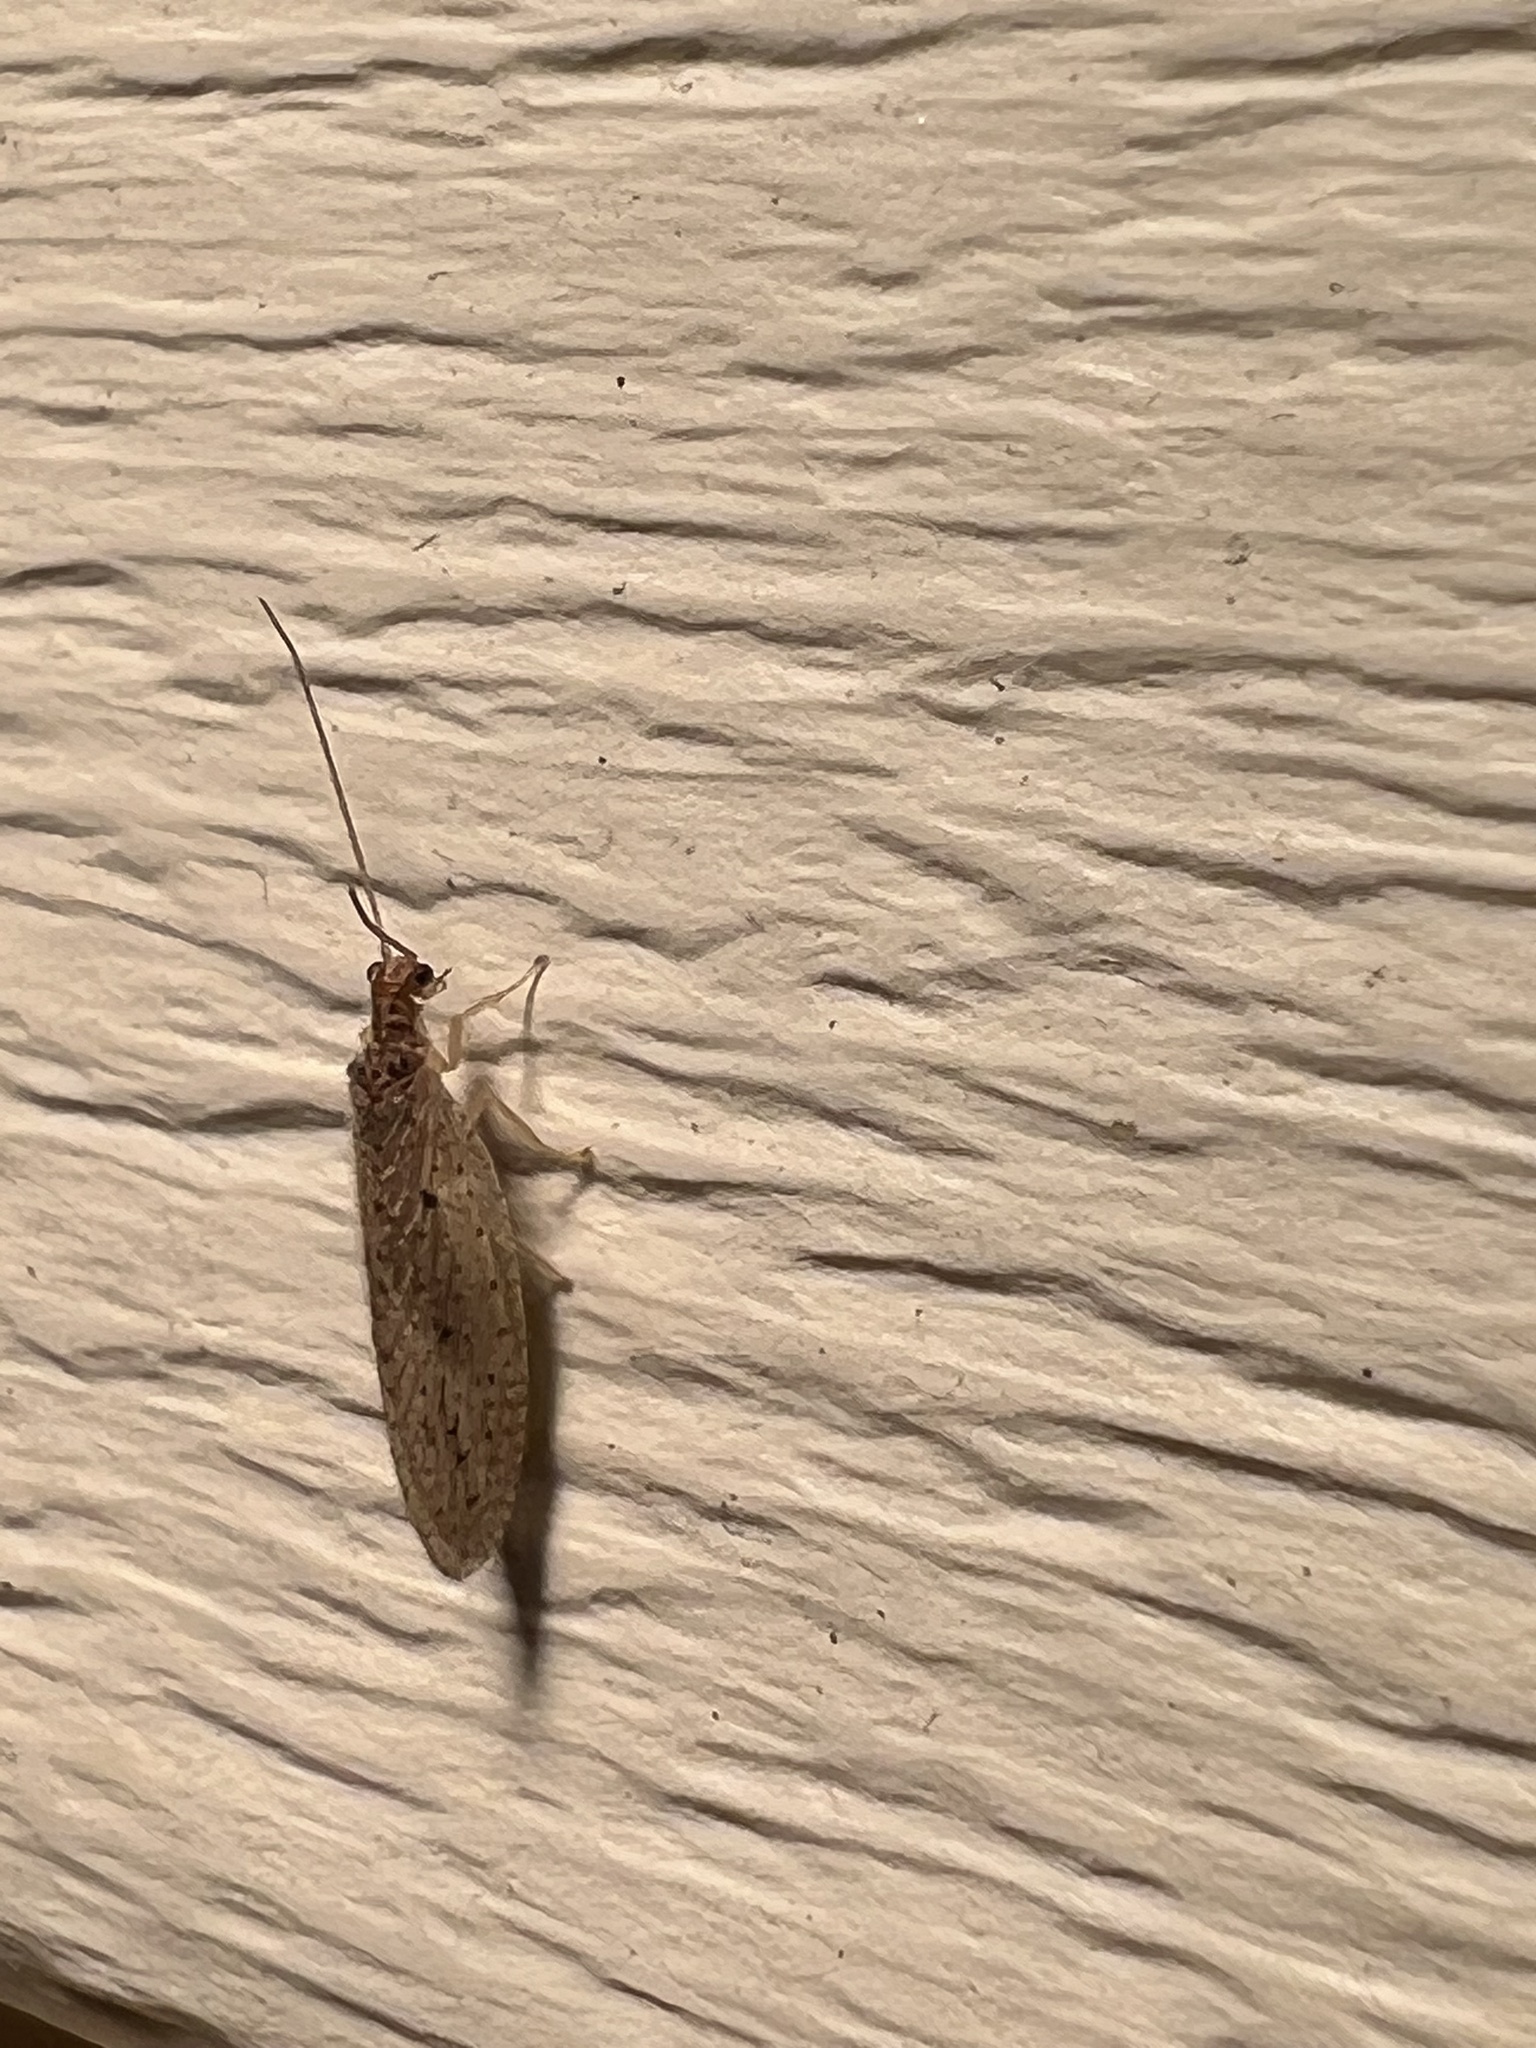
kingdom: Animalia
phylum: Arthropoda
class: Insecta
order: Neuroptera
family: Hemerobiidae
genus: Micromus
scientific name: Micromus subanticus
